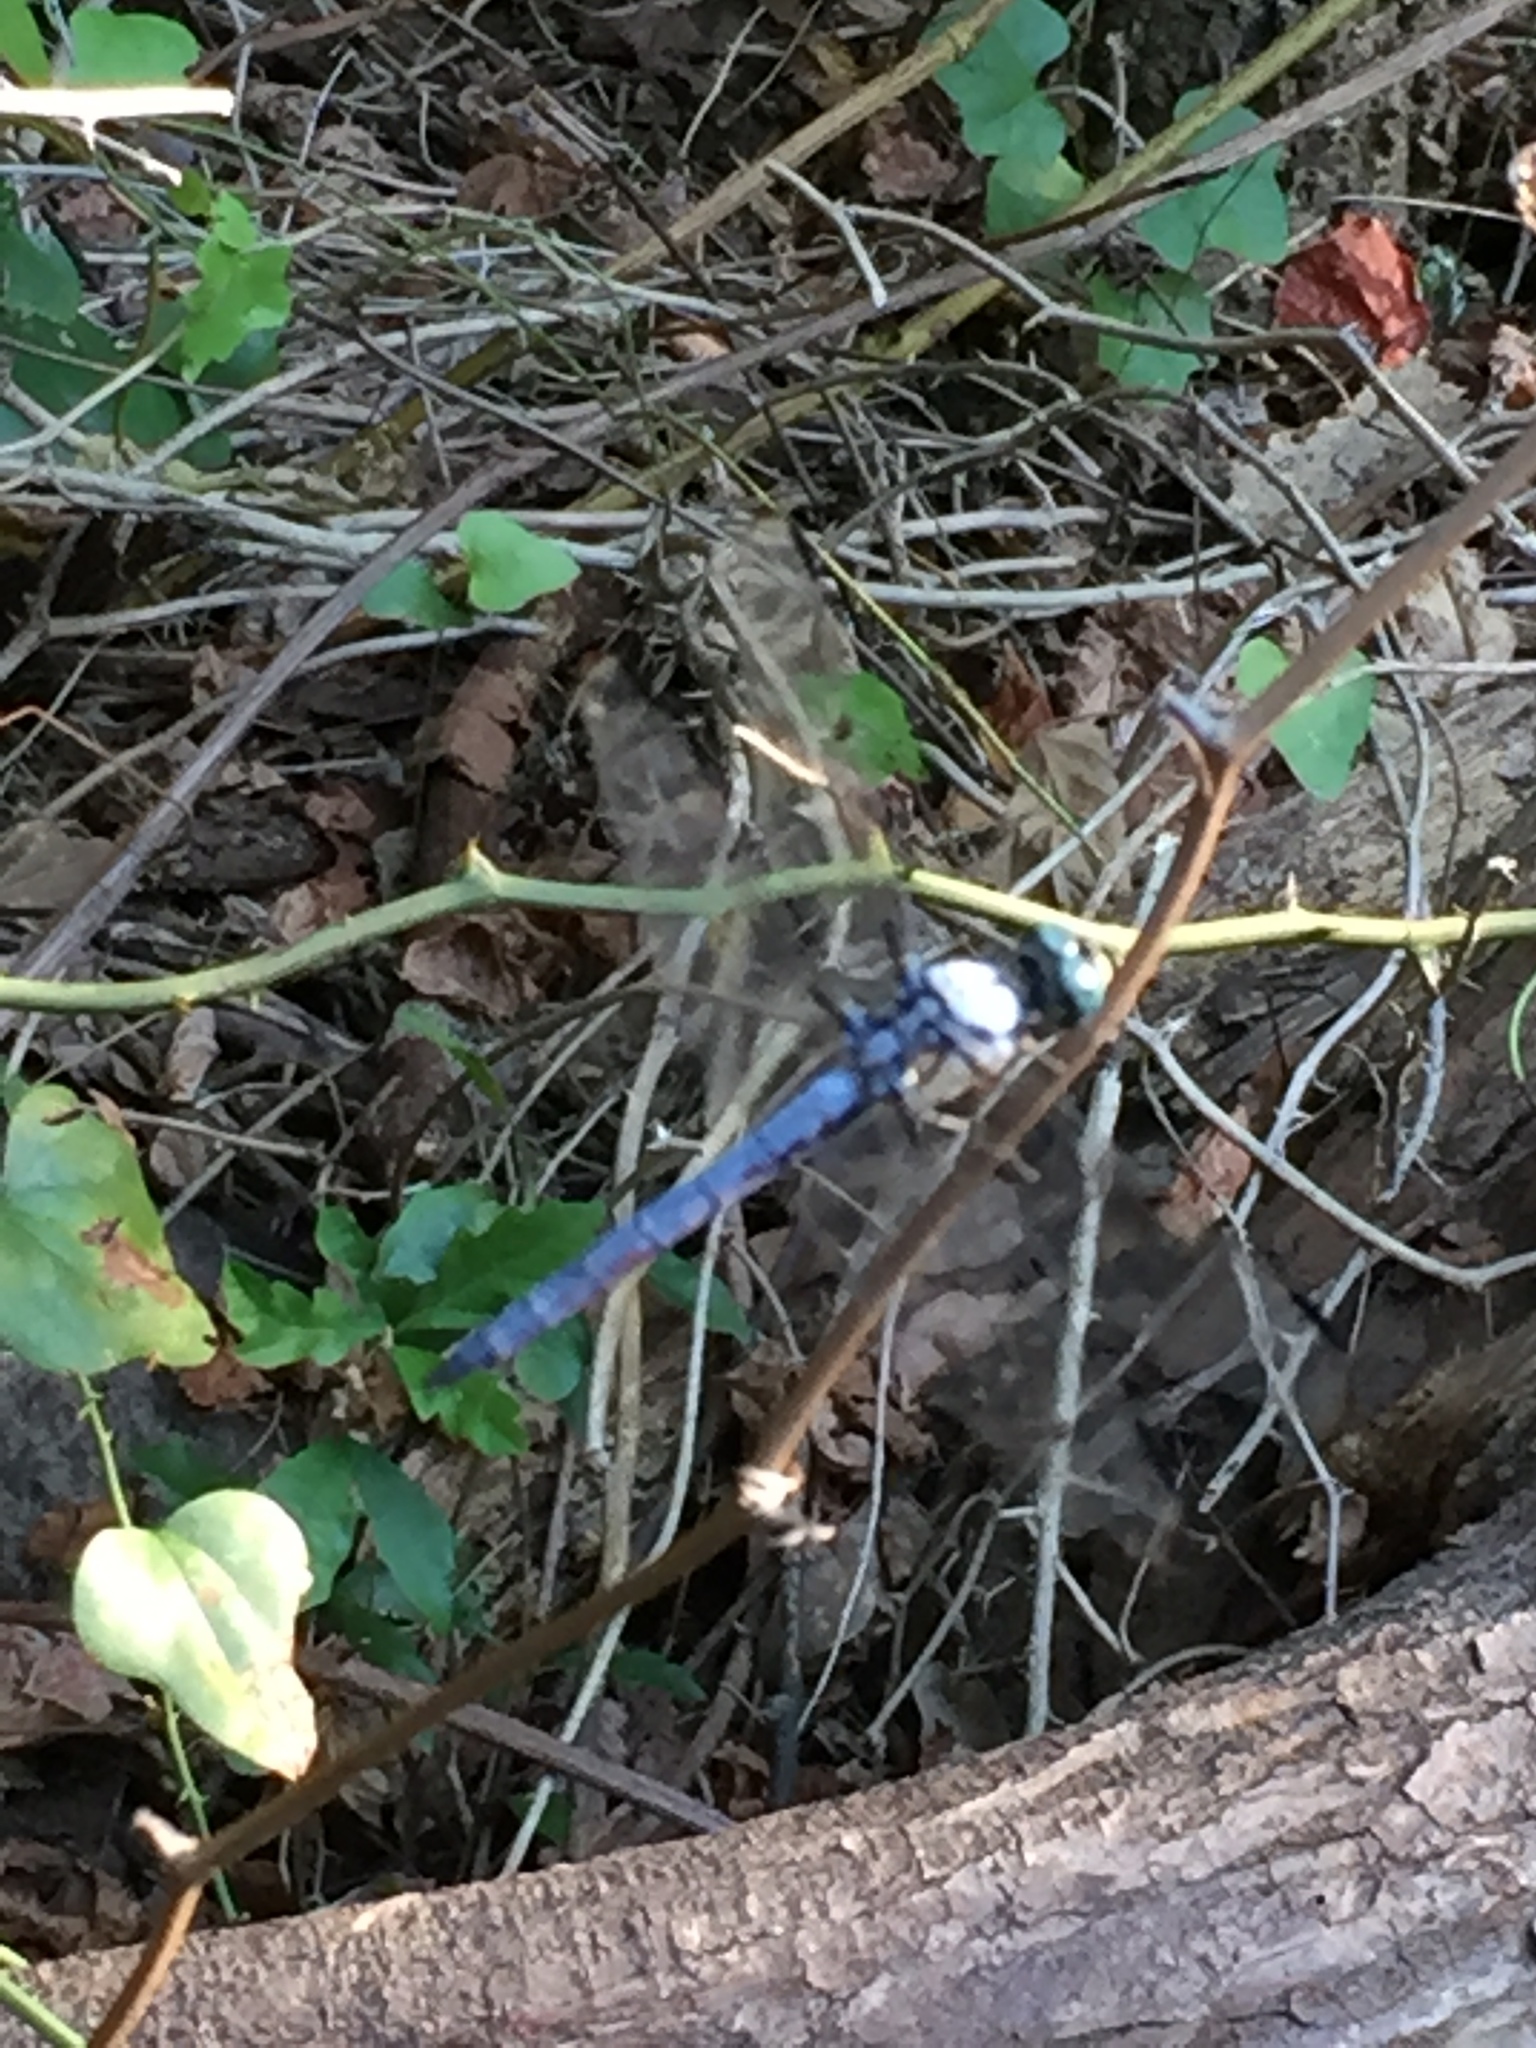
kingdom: Animalia
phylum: Arthropoda
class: Insecta
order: Odonata
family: Libellulidae
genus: Libellula
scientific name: Libellula vibrans
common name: Great blue skimmer
